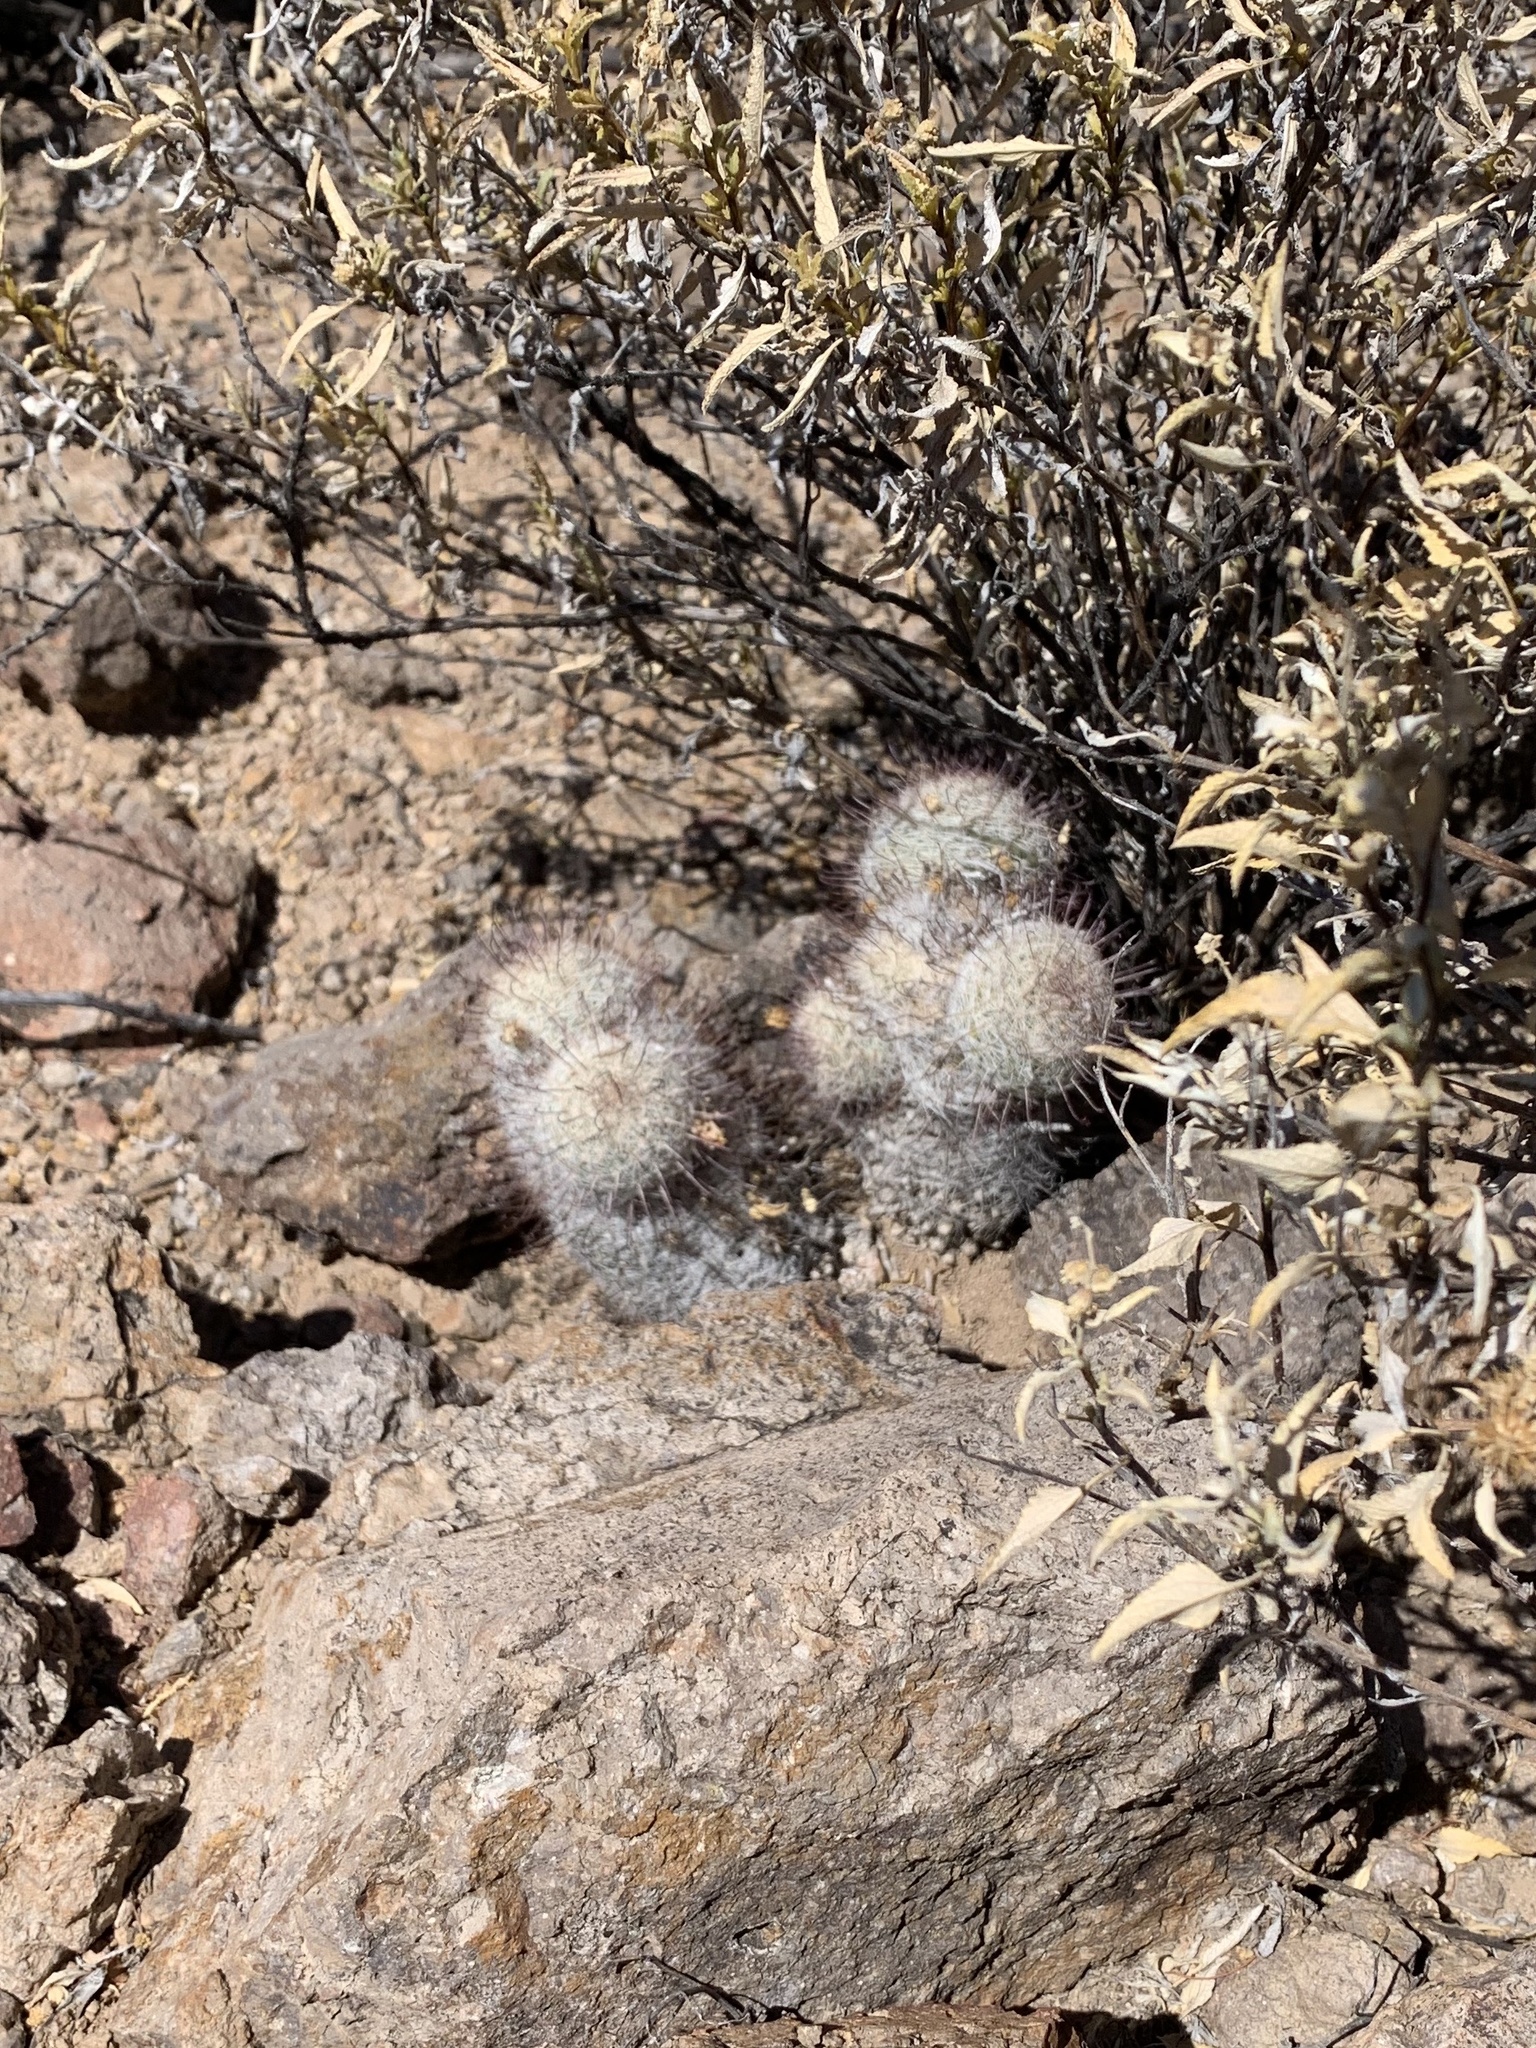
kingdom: Plantae
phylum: Tracheophyta
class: Magnoliopsida
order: Caryophyllales
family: Cactaceae
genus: Cochemiea
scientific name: Cochemiea grahamii
